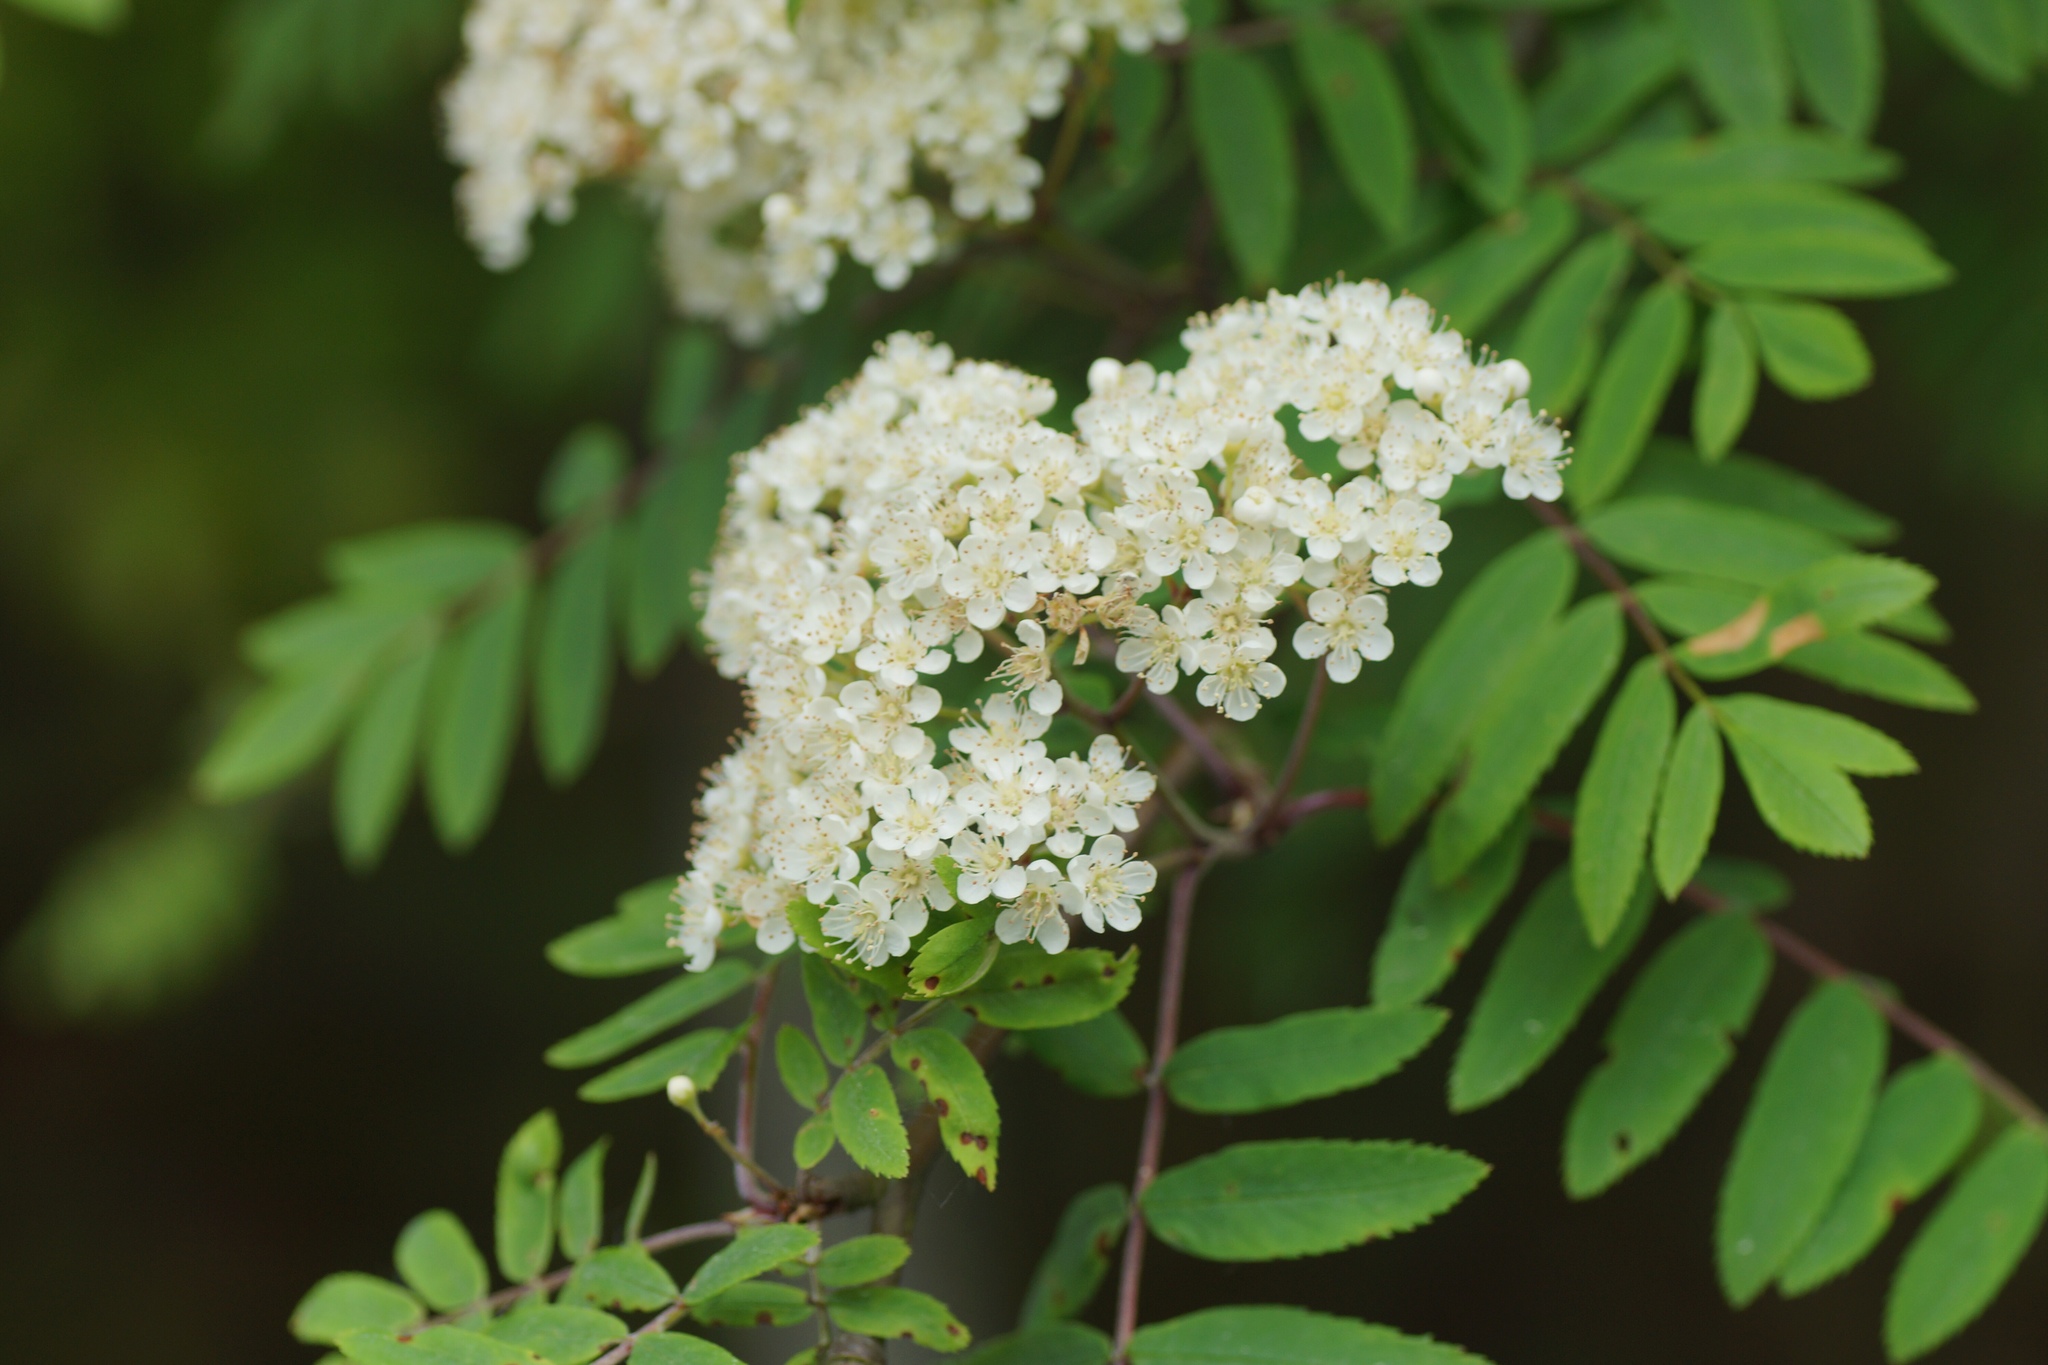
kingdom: Plantae
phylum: Tracheophyta
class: Magnoliopsida
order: Rosales
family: Rosaceae
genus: Sorbus
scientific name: Sorbus aucuparia
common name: Rowan
